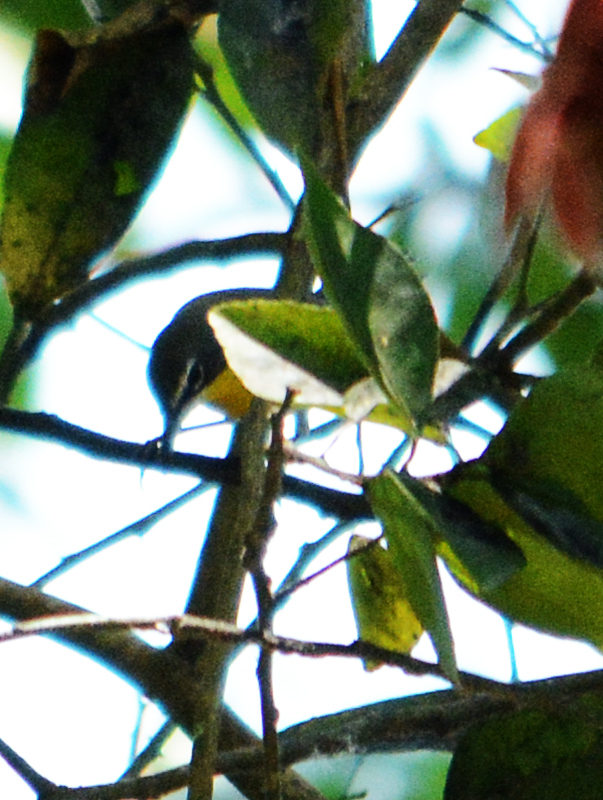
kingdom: Animalia
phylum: Chordata
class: Aves
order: Passeriformes
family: Parulidae
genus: Icteria
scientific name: Icteria virens
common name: Yellow-breasted chat
